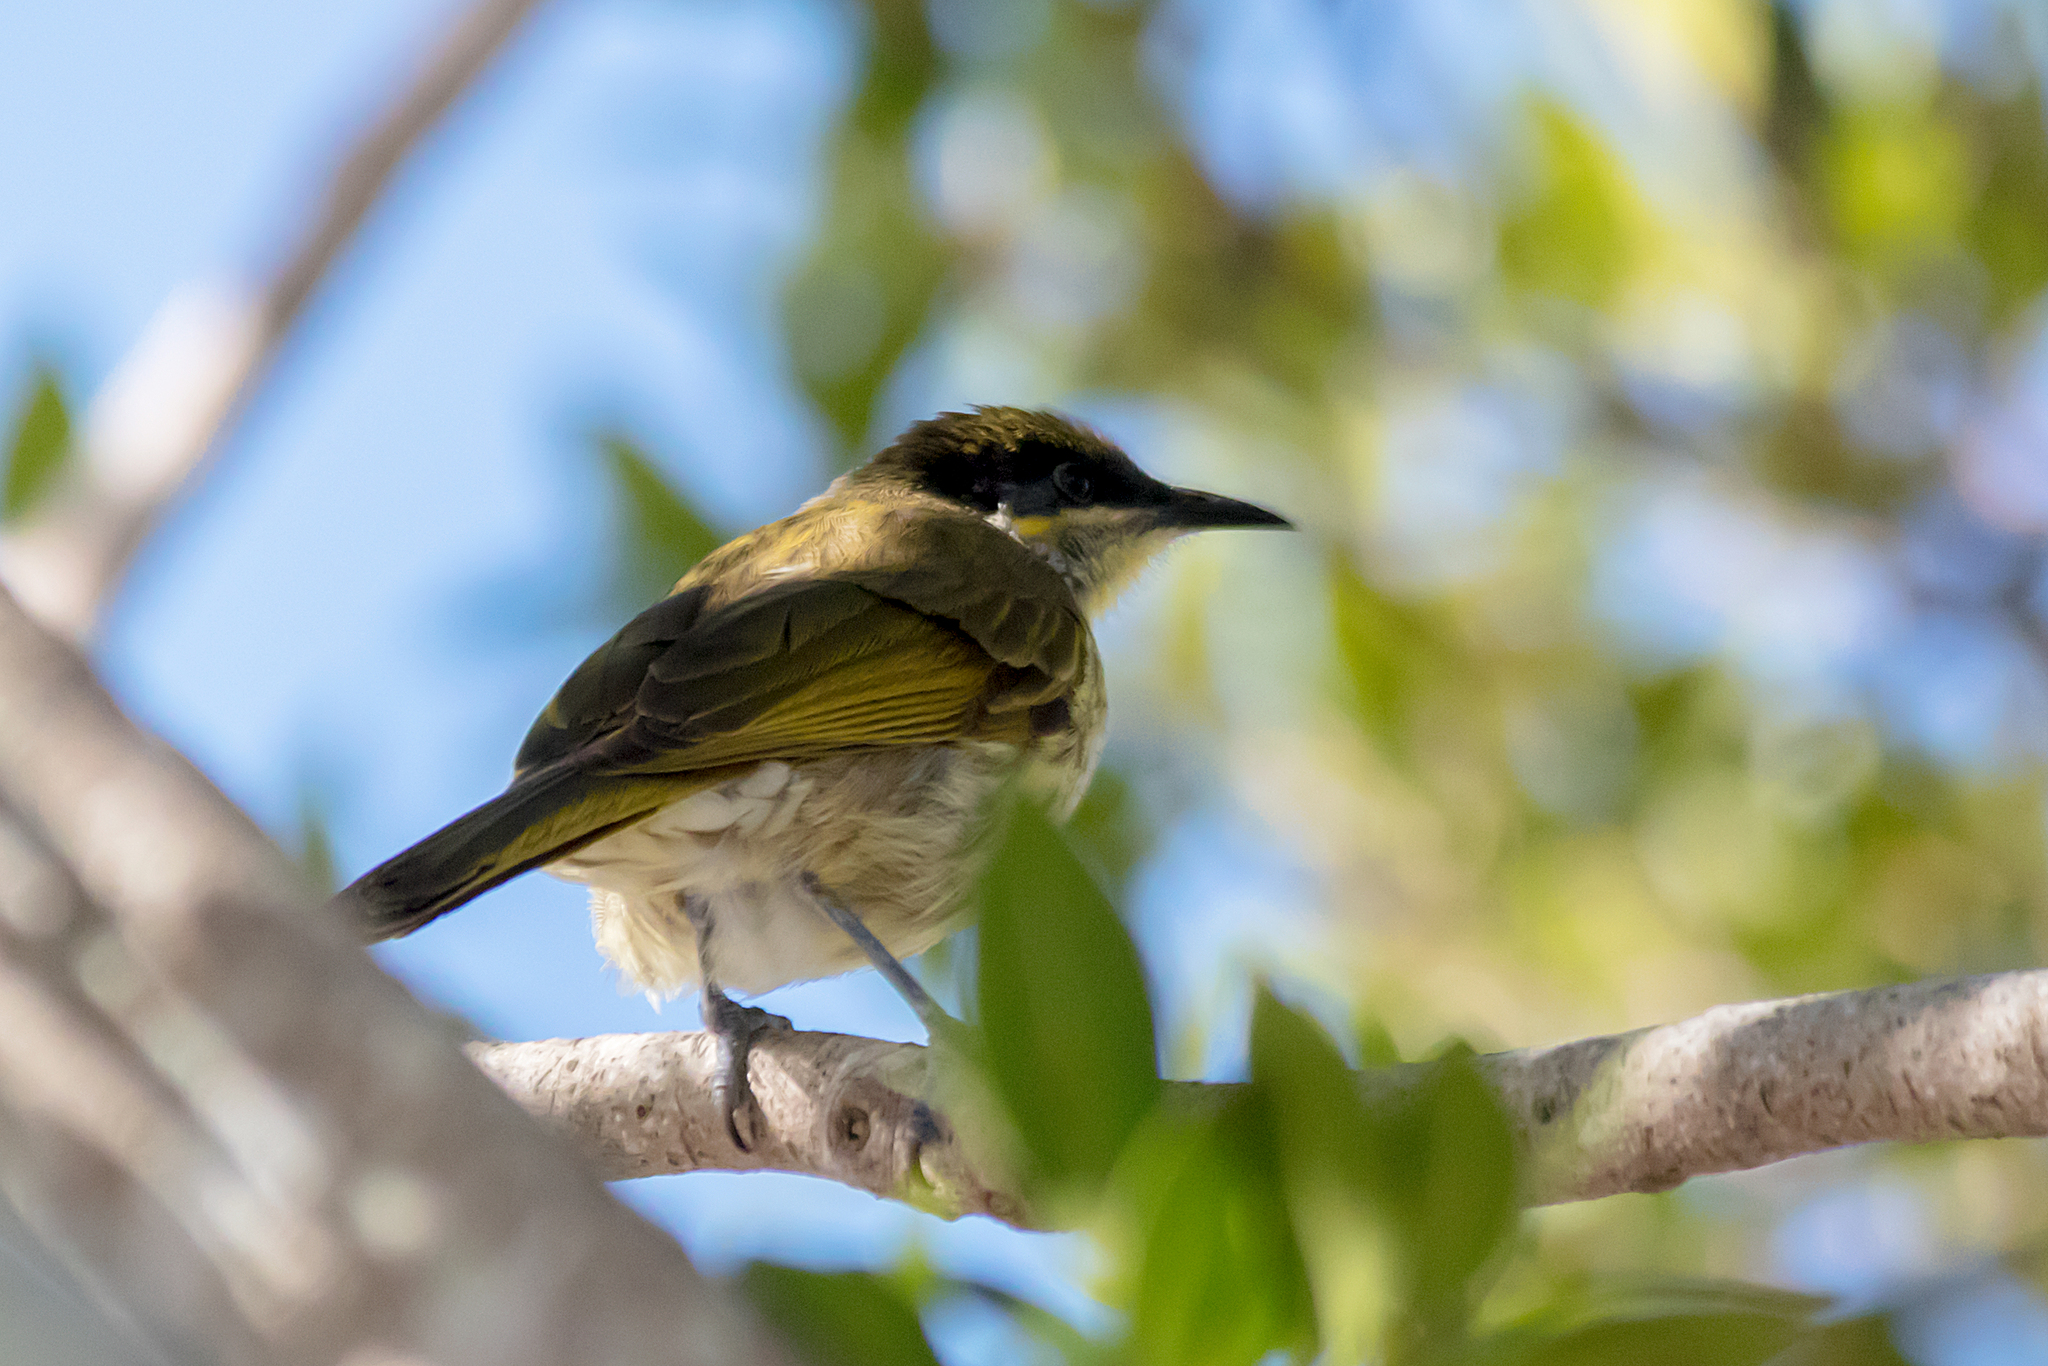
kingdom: Animalia
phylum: Chordata
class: Aves
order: Passeriformes
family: Meliphagidae
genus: Gavicalis
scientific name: Gavicalis versicolor
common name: Varied honeyeater
